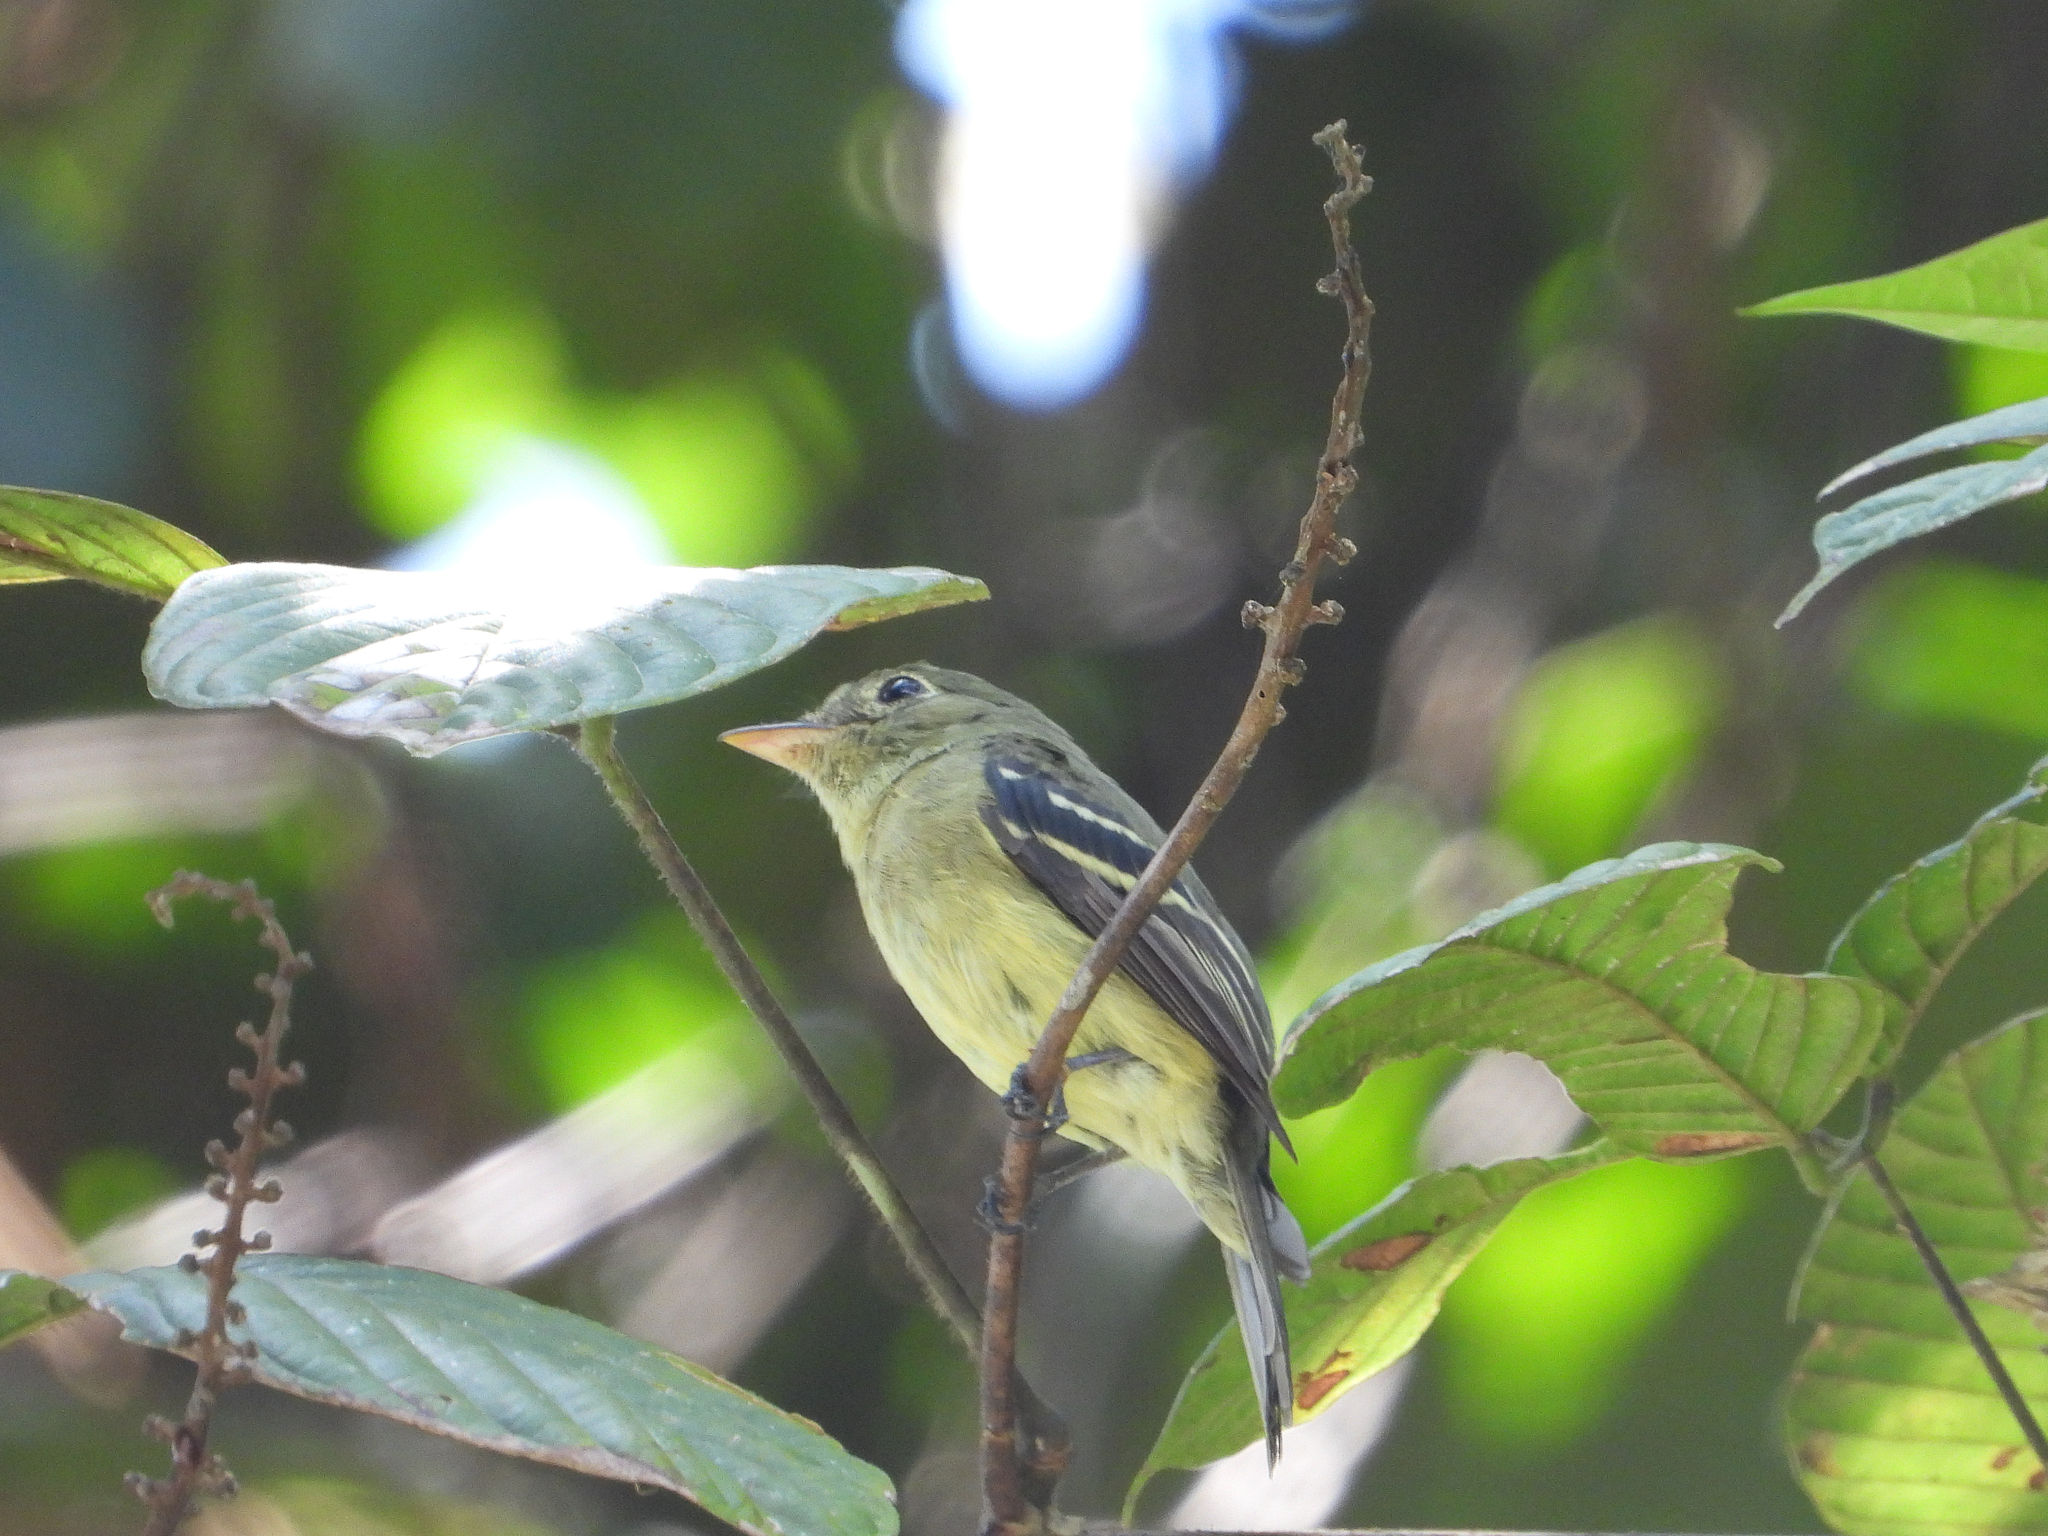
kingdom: Animalia
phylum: Chordata
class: Aves
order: Passeriformes
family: Tyrannidae
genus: Empidonax
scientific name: Empidonax flaviventris
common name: Yellow-bellied flycatcher
